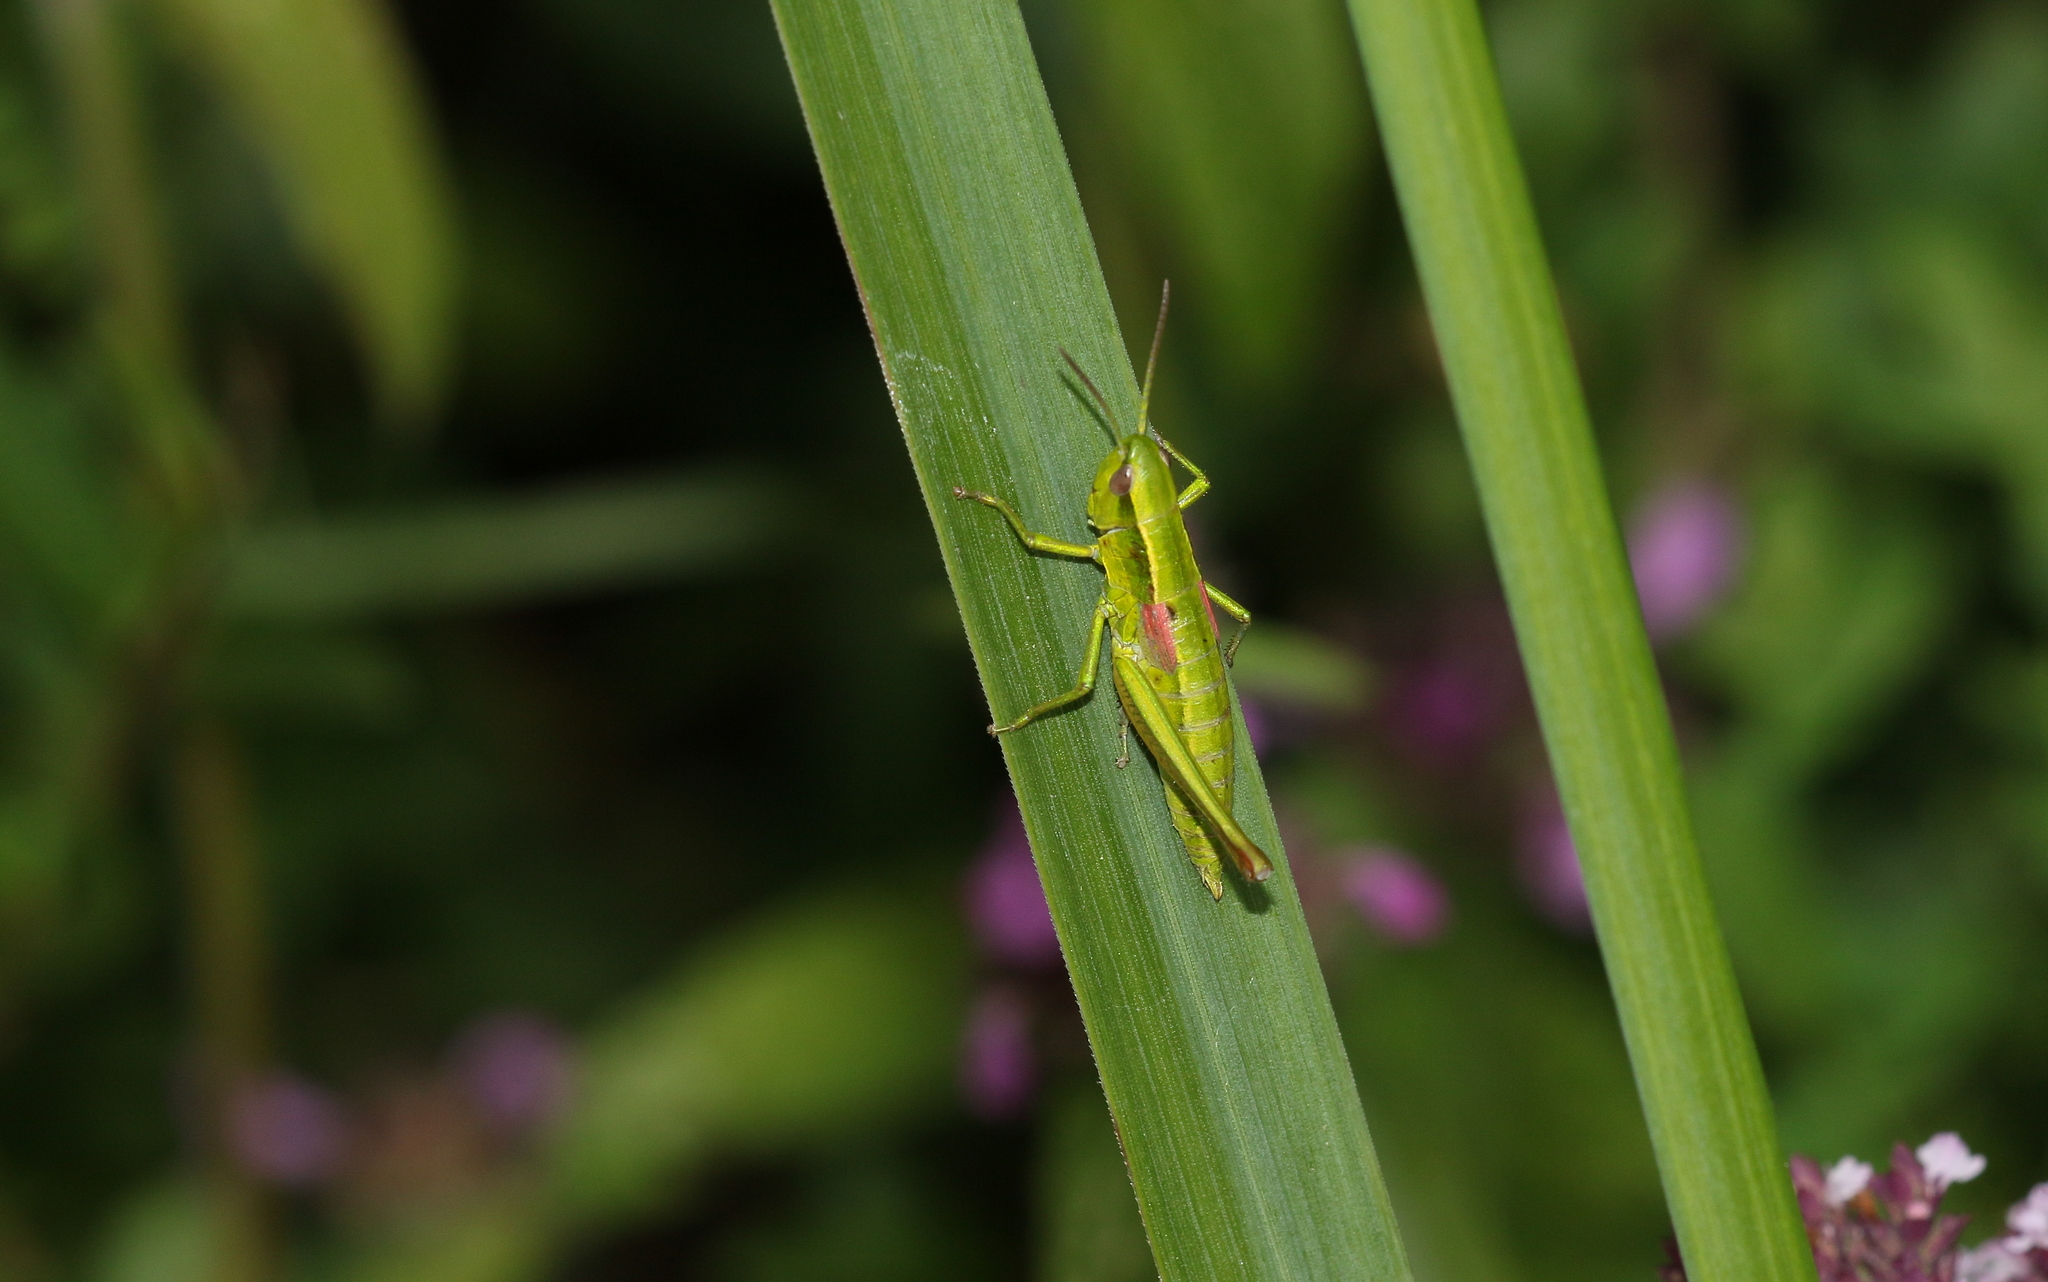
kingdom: Animalia
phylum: Arthropoda
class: Insecta
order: Orthoptera
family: Acrididae
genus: Euthystira
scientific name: Euthystira brachyptera
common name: Small gold grasshopper
